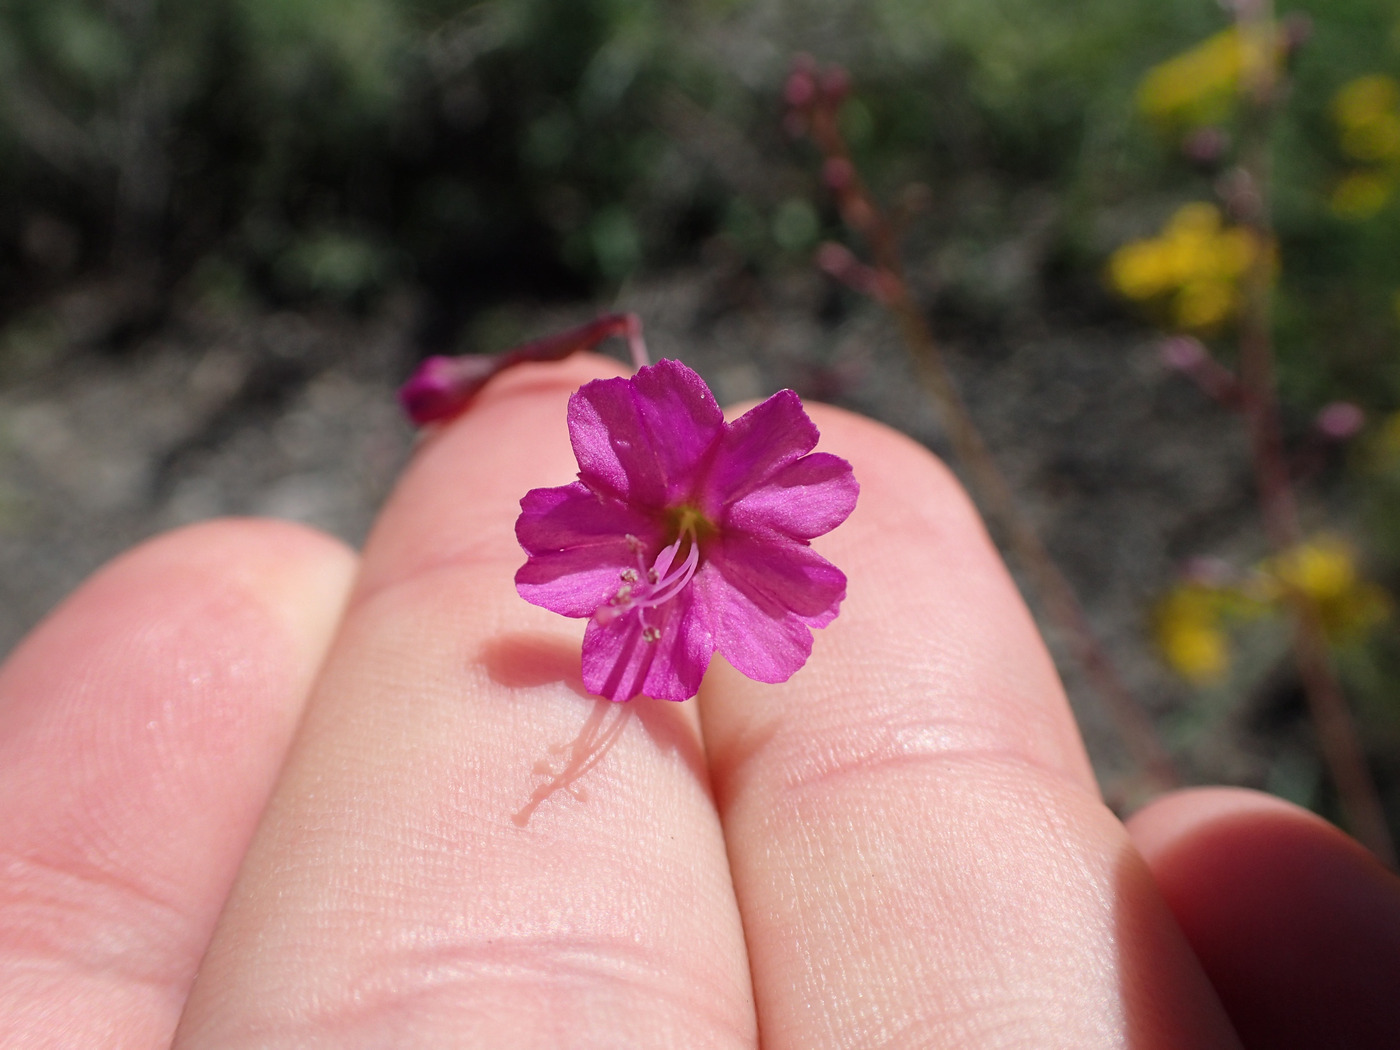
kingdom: Plantae
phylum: Tracheophyta
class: Magnoliopsida
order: Caryophyllales
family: Nyctaginaceae
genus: Cyphomeris
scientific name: Cyphomeris gypsophiloides
